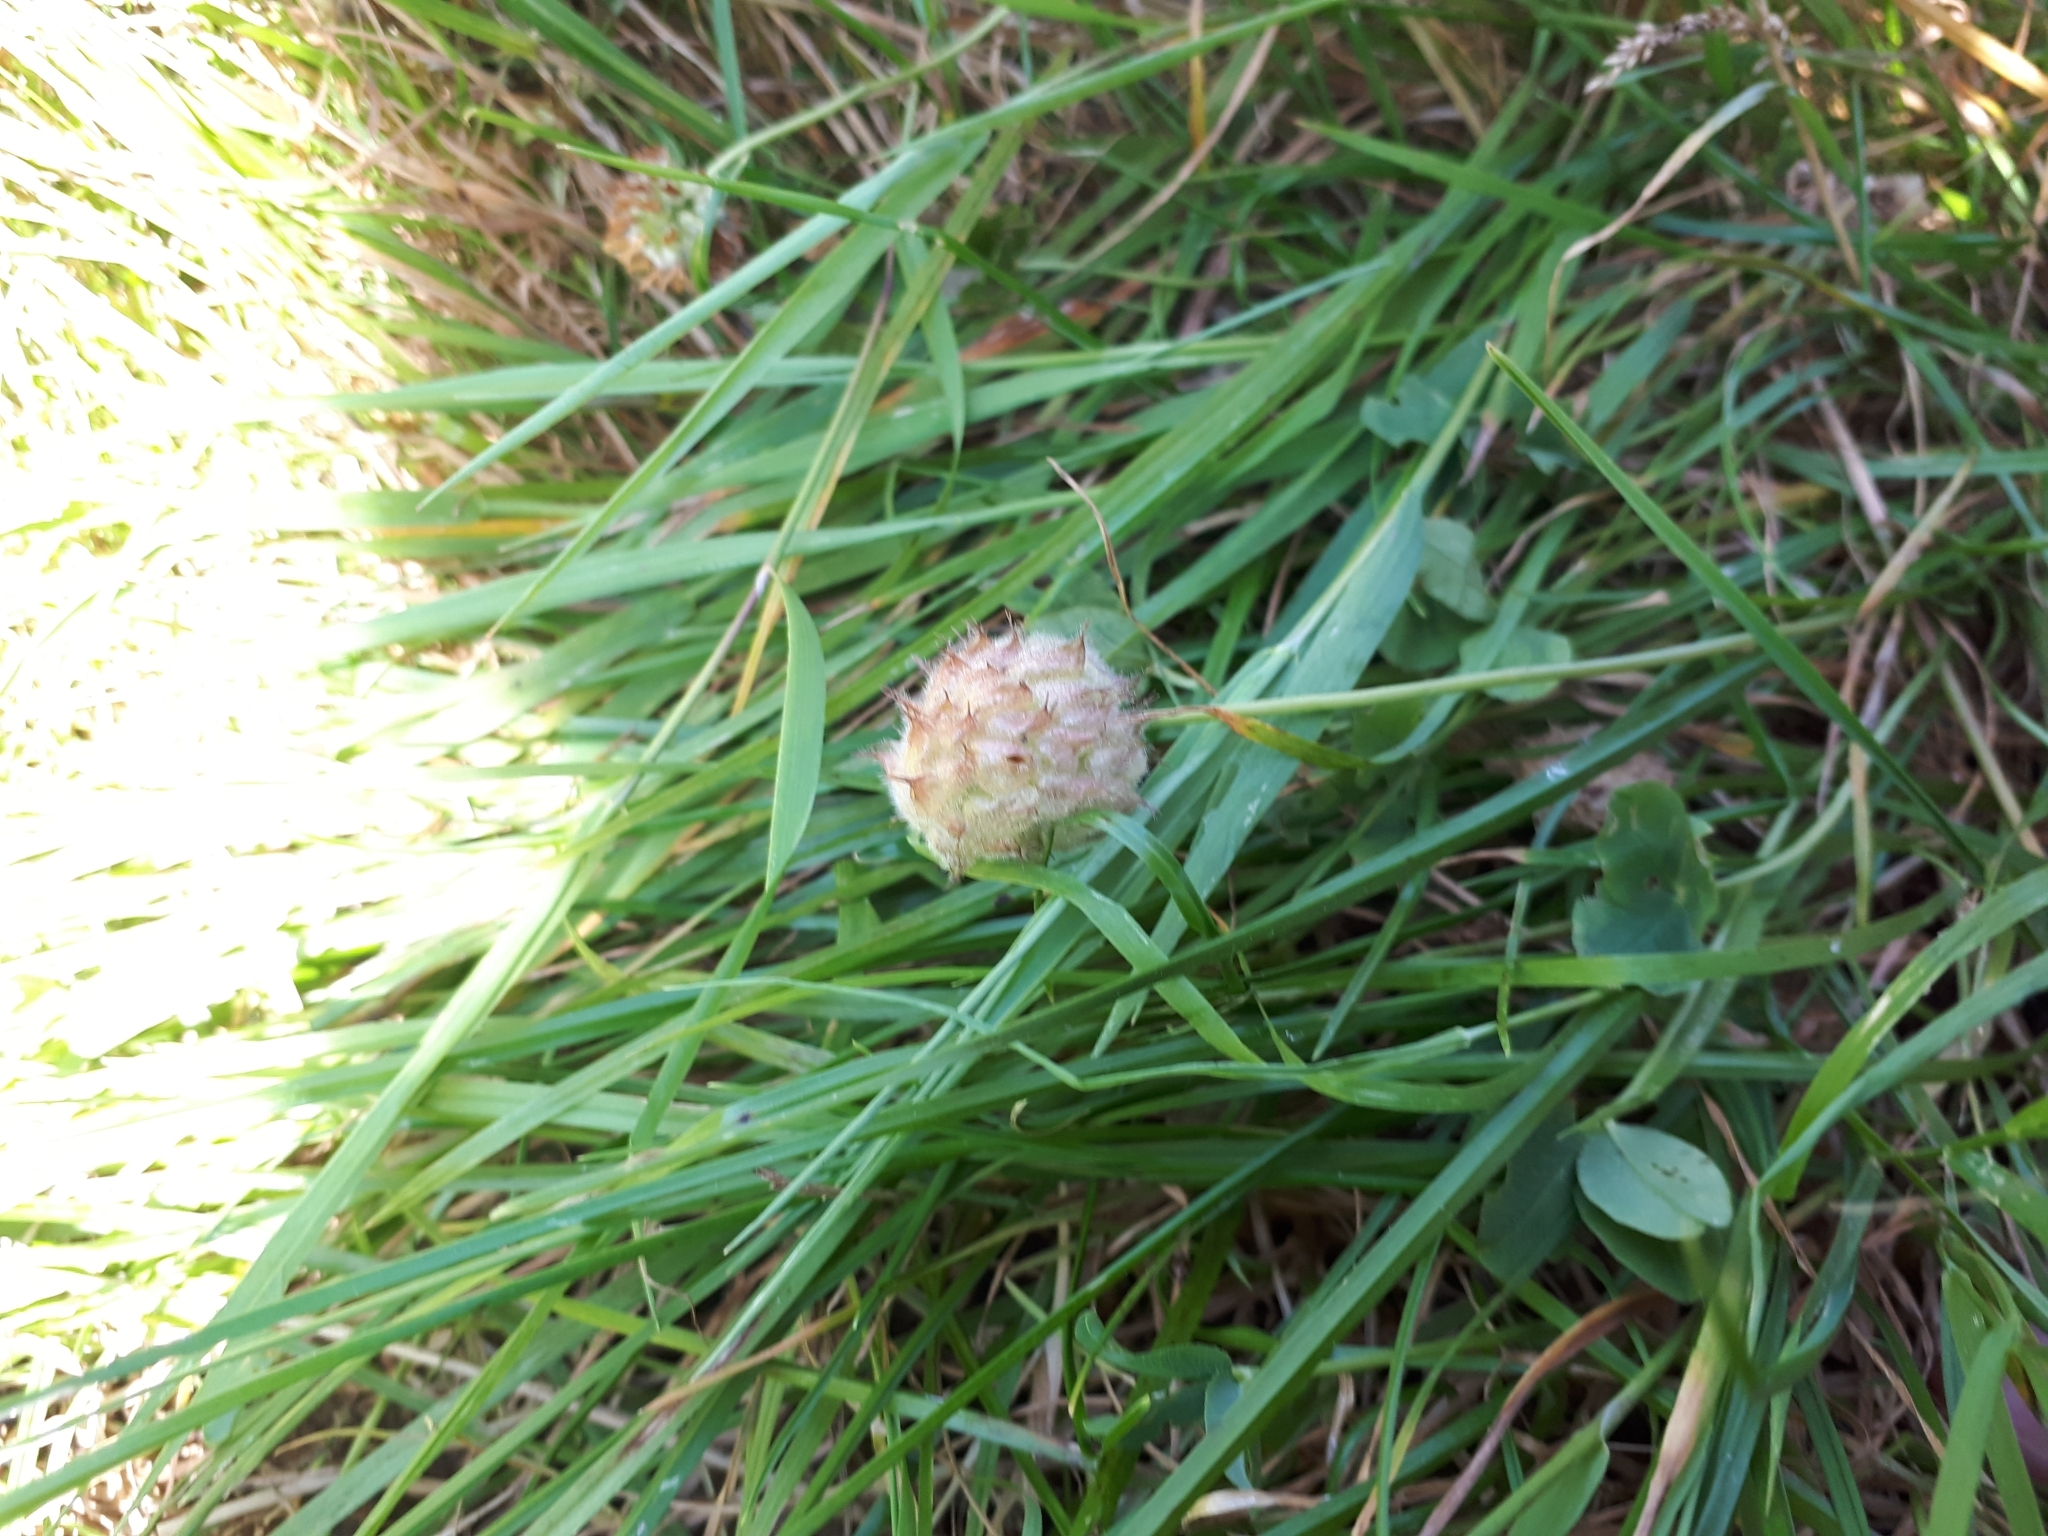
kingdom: Plantae
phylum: Tracheophyta
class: Magnoliopsida
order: Fabales
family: Fabaceae
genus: Trifolium
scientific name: Trifolium arvense
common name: Hare's-foot clover
